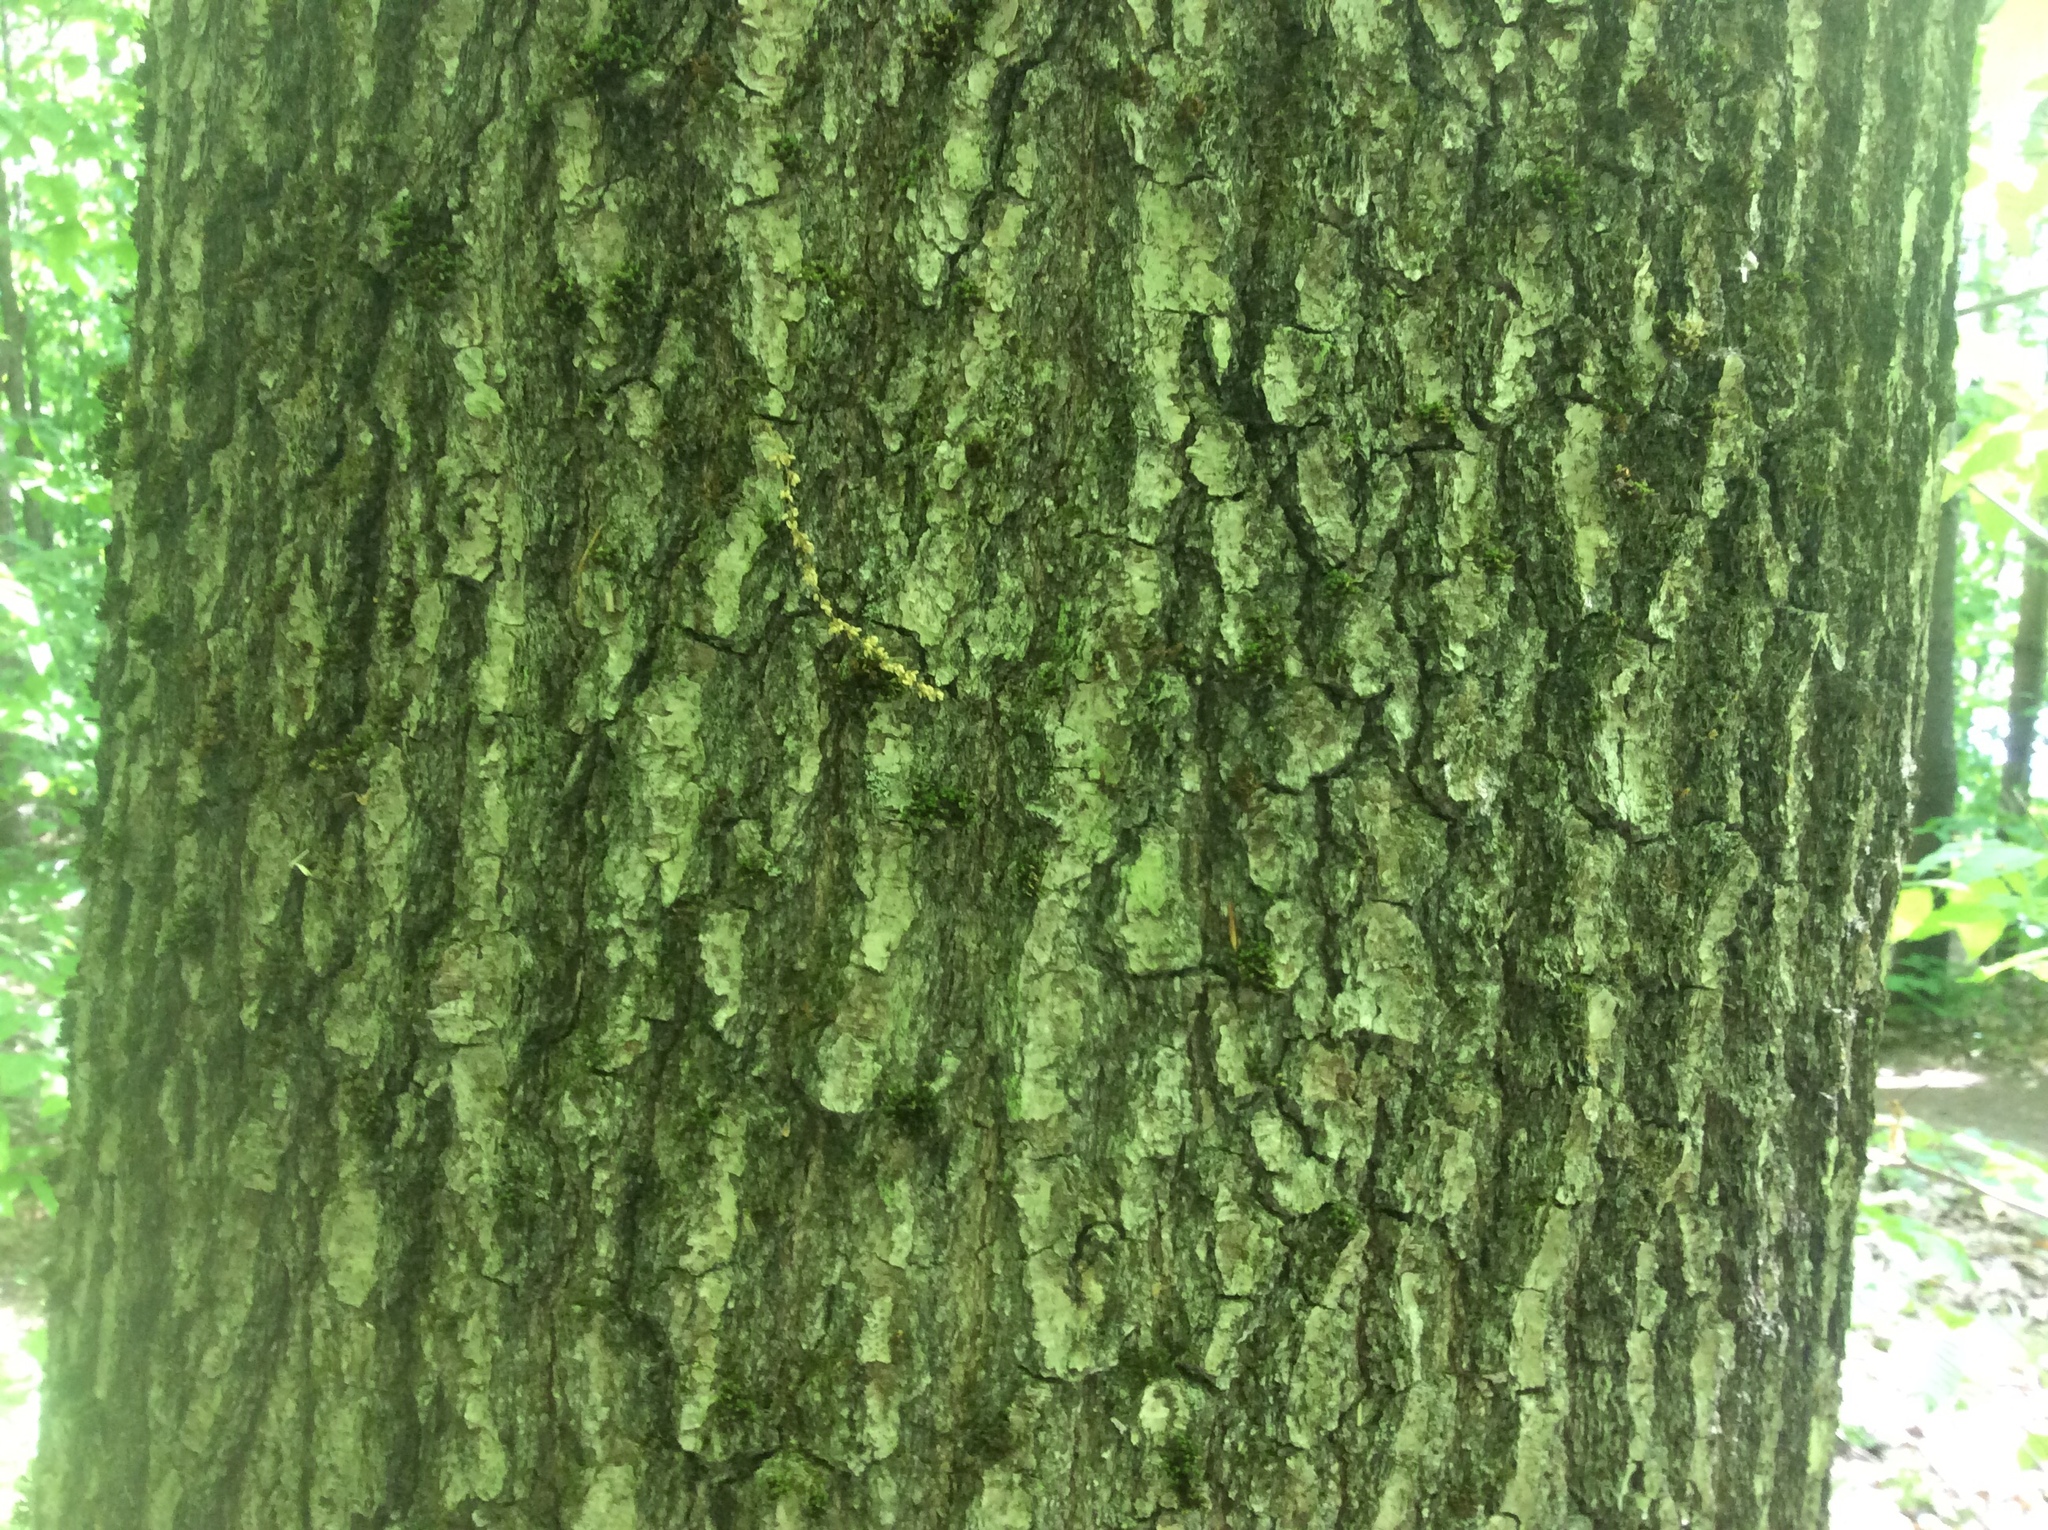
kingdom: Plantae
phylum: Tracheophyta
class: Magnoliopsida
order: Fagales
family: Fagaceae
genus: Quercus
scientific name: Quercus rubra
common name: Red oak
